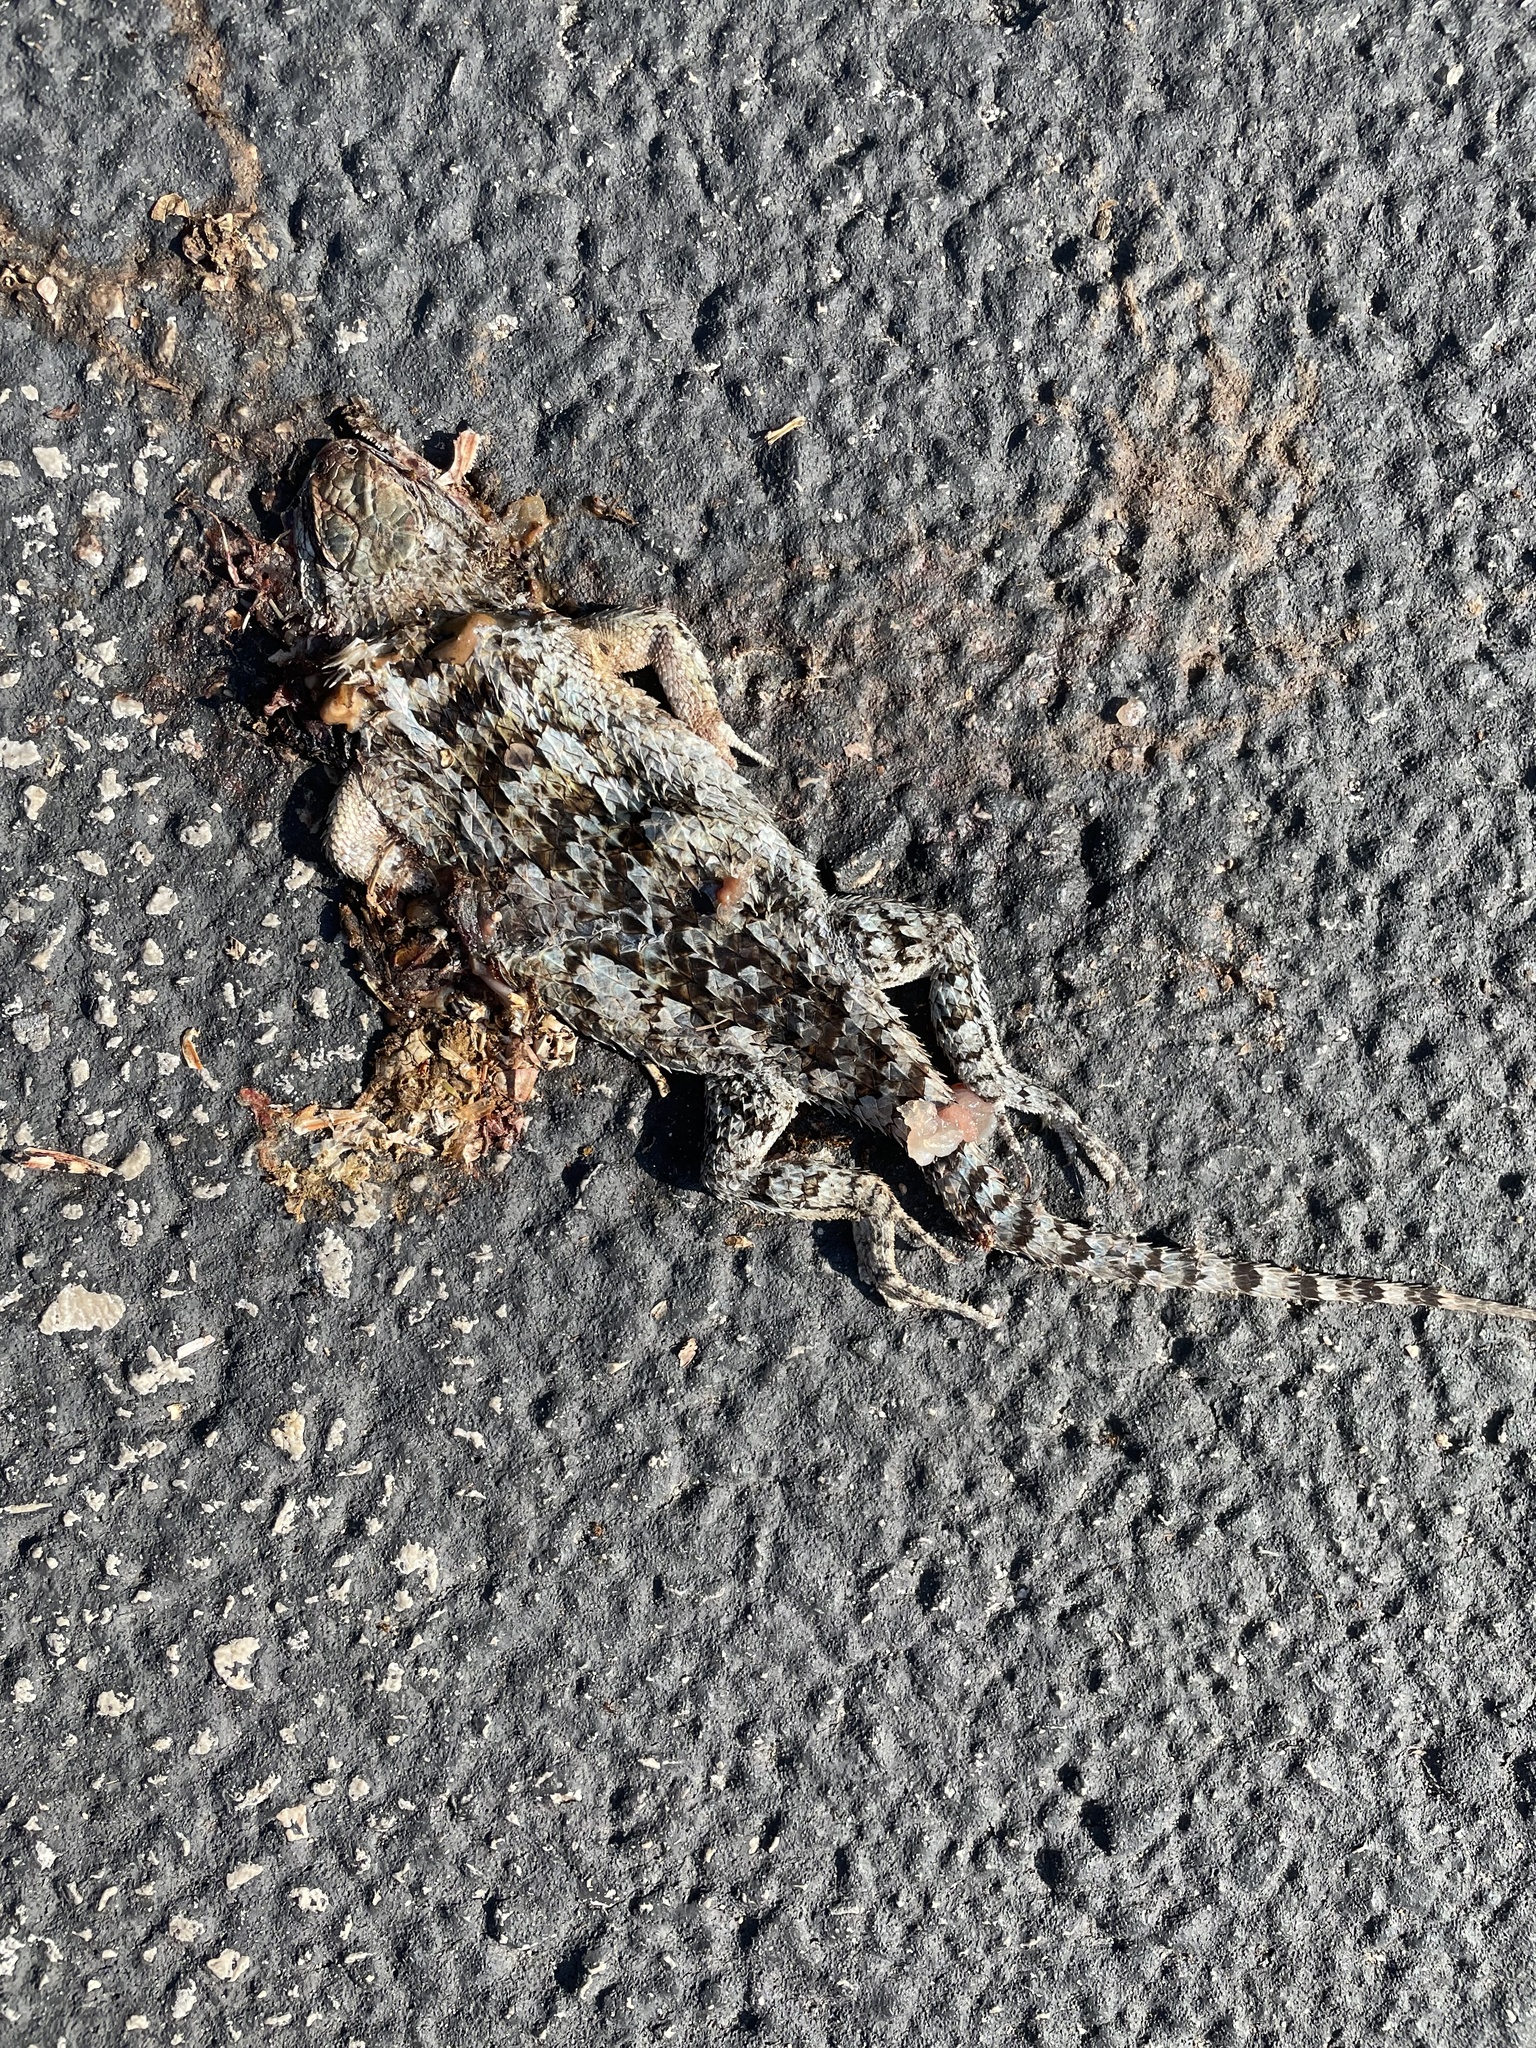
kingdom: Animalia
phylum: Chordata
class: Squamata
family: Phrynosomatidae
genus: Sceloporus
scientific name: Sceloporus olivaceus
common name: Texas spiny lizard
